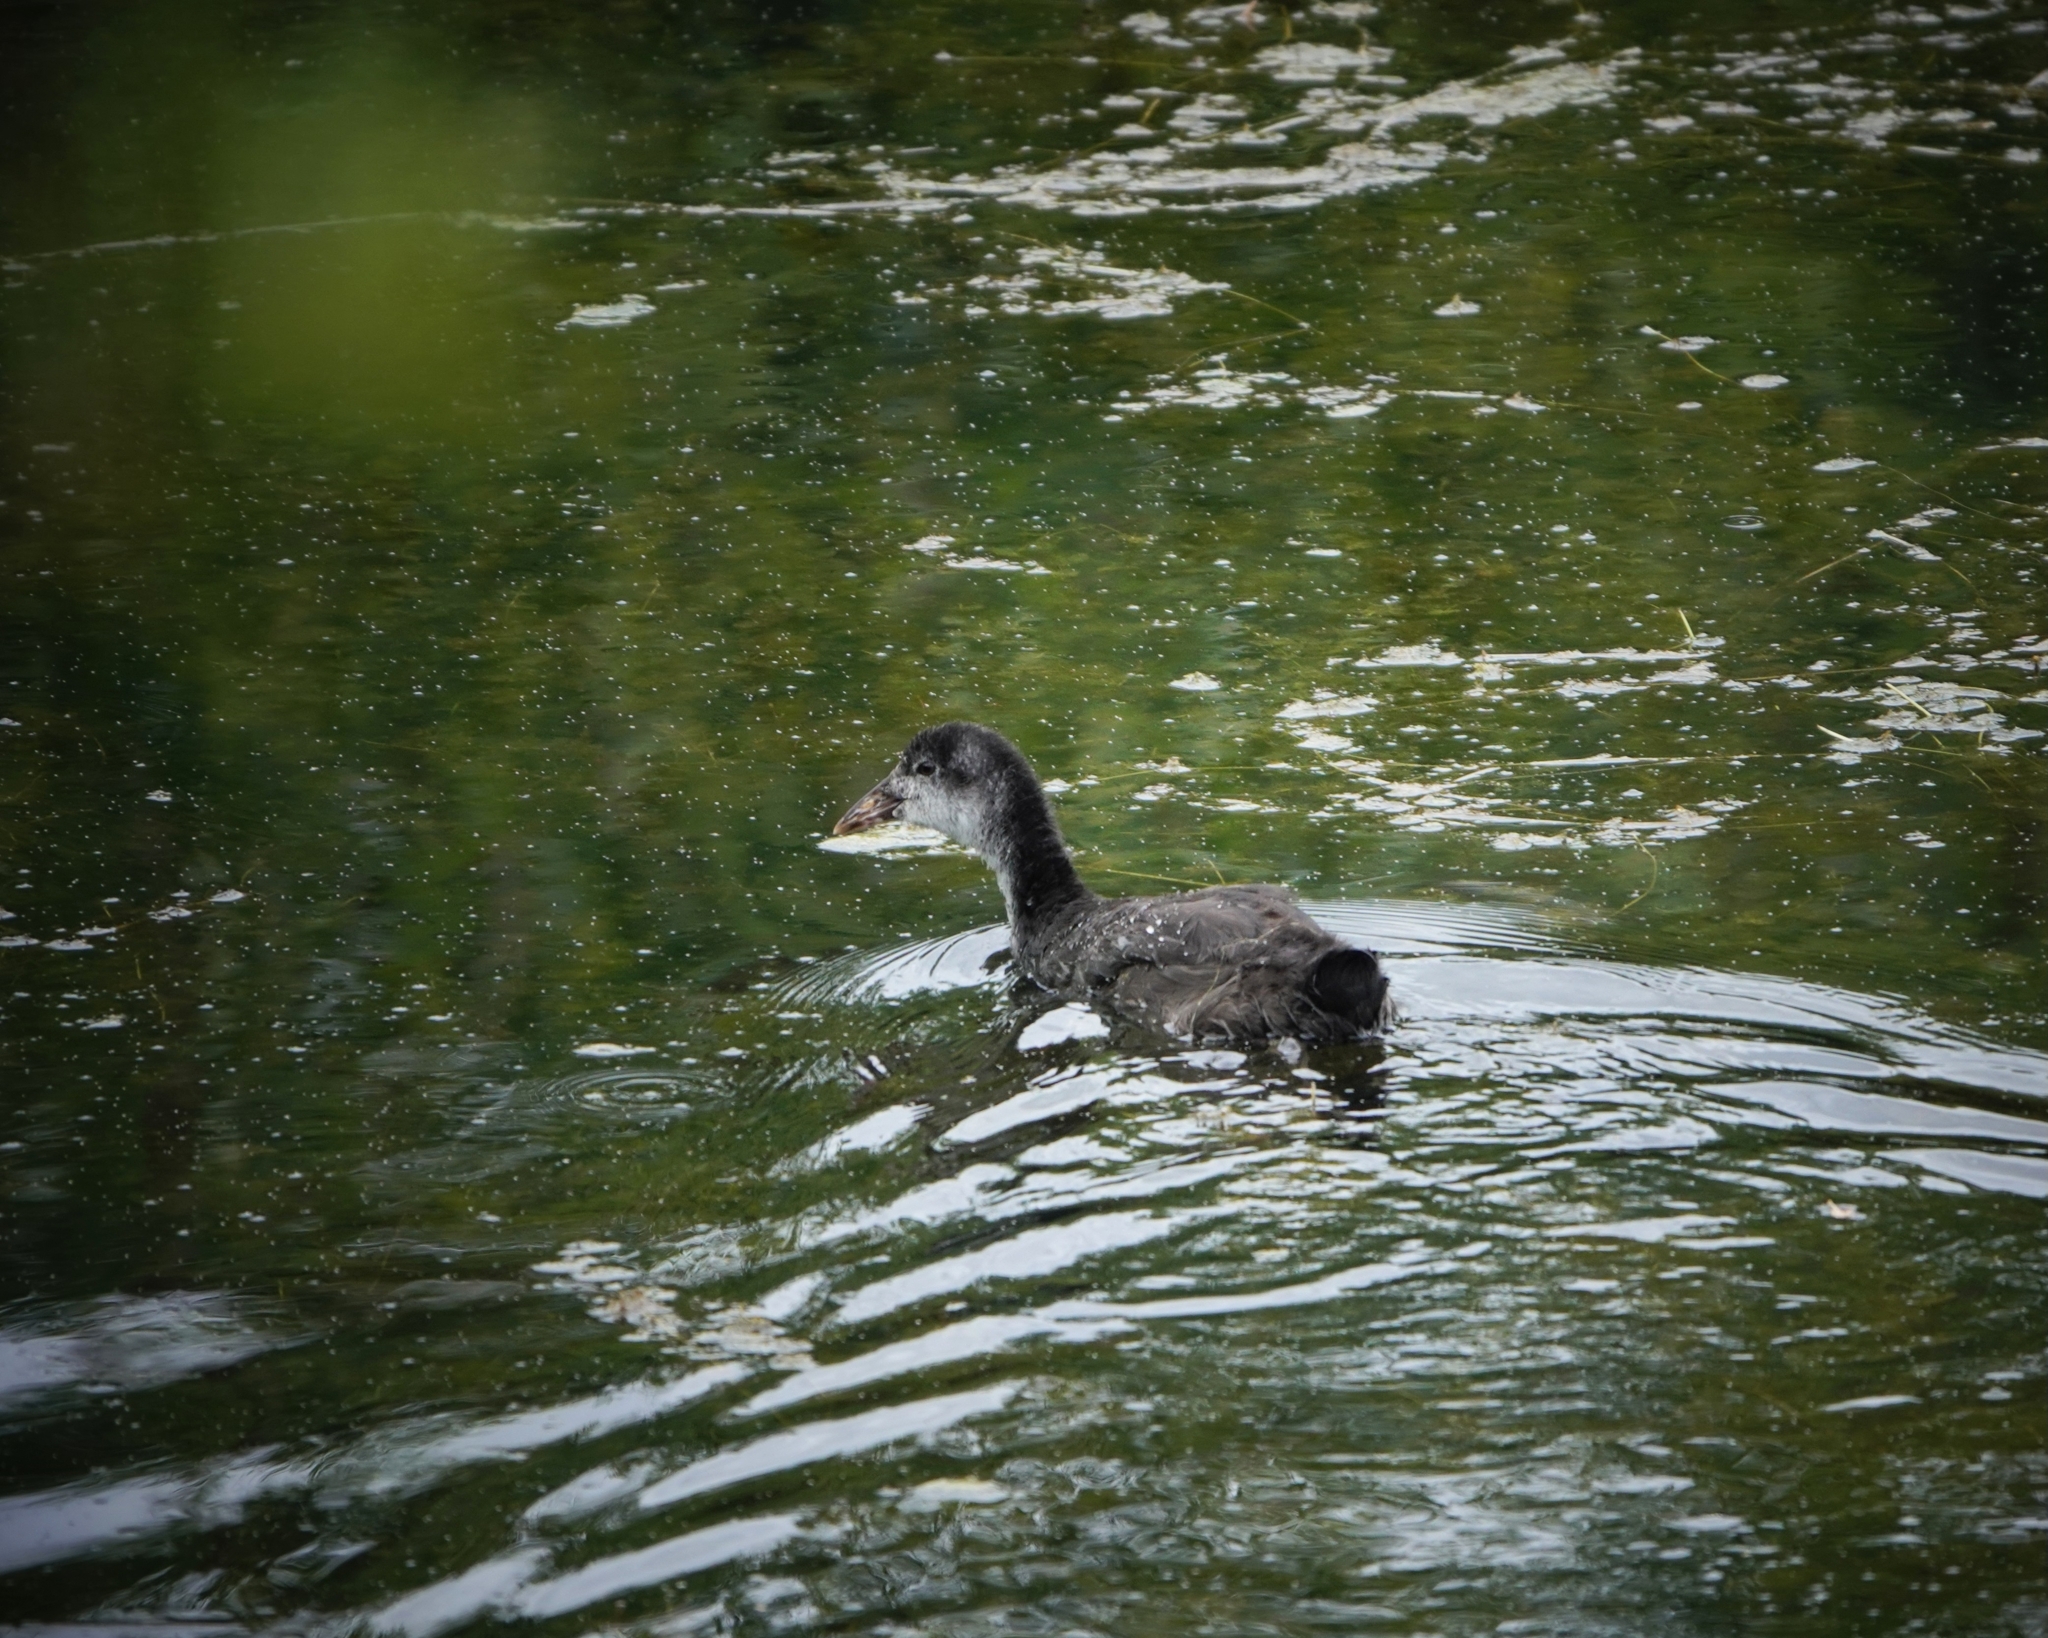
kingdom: Animalia
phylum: Chordata
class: Aves
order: Gruiformes
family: Rallidae
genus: Fulica
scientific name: Fulica atra
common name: Eurasian coot
